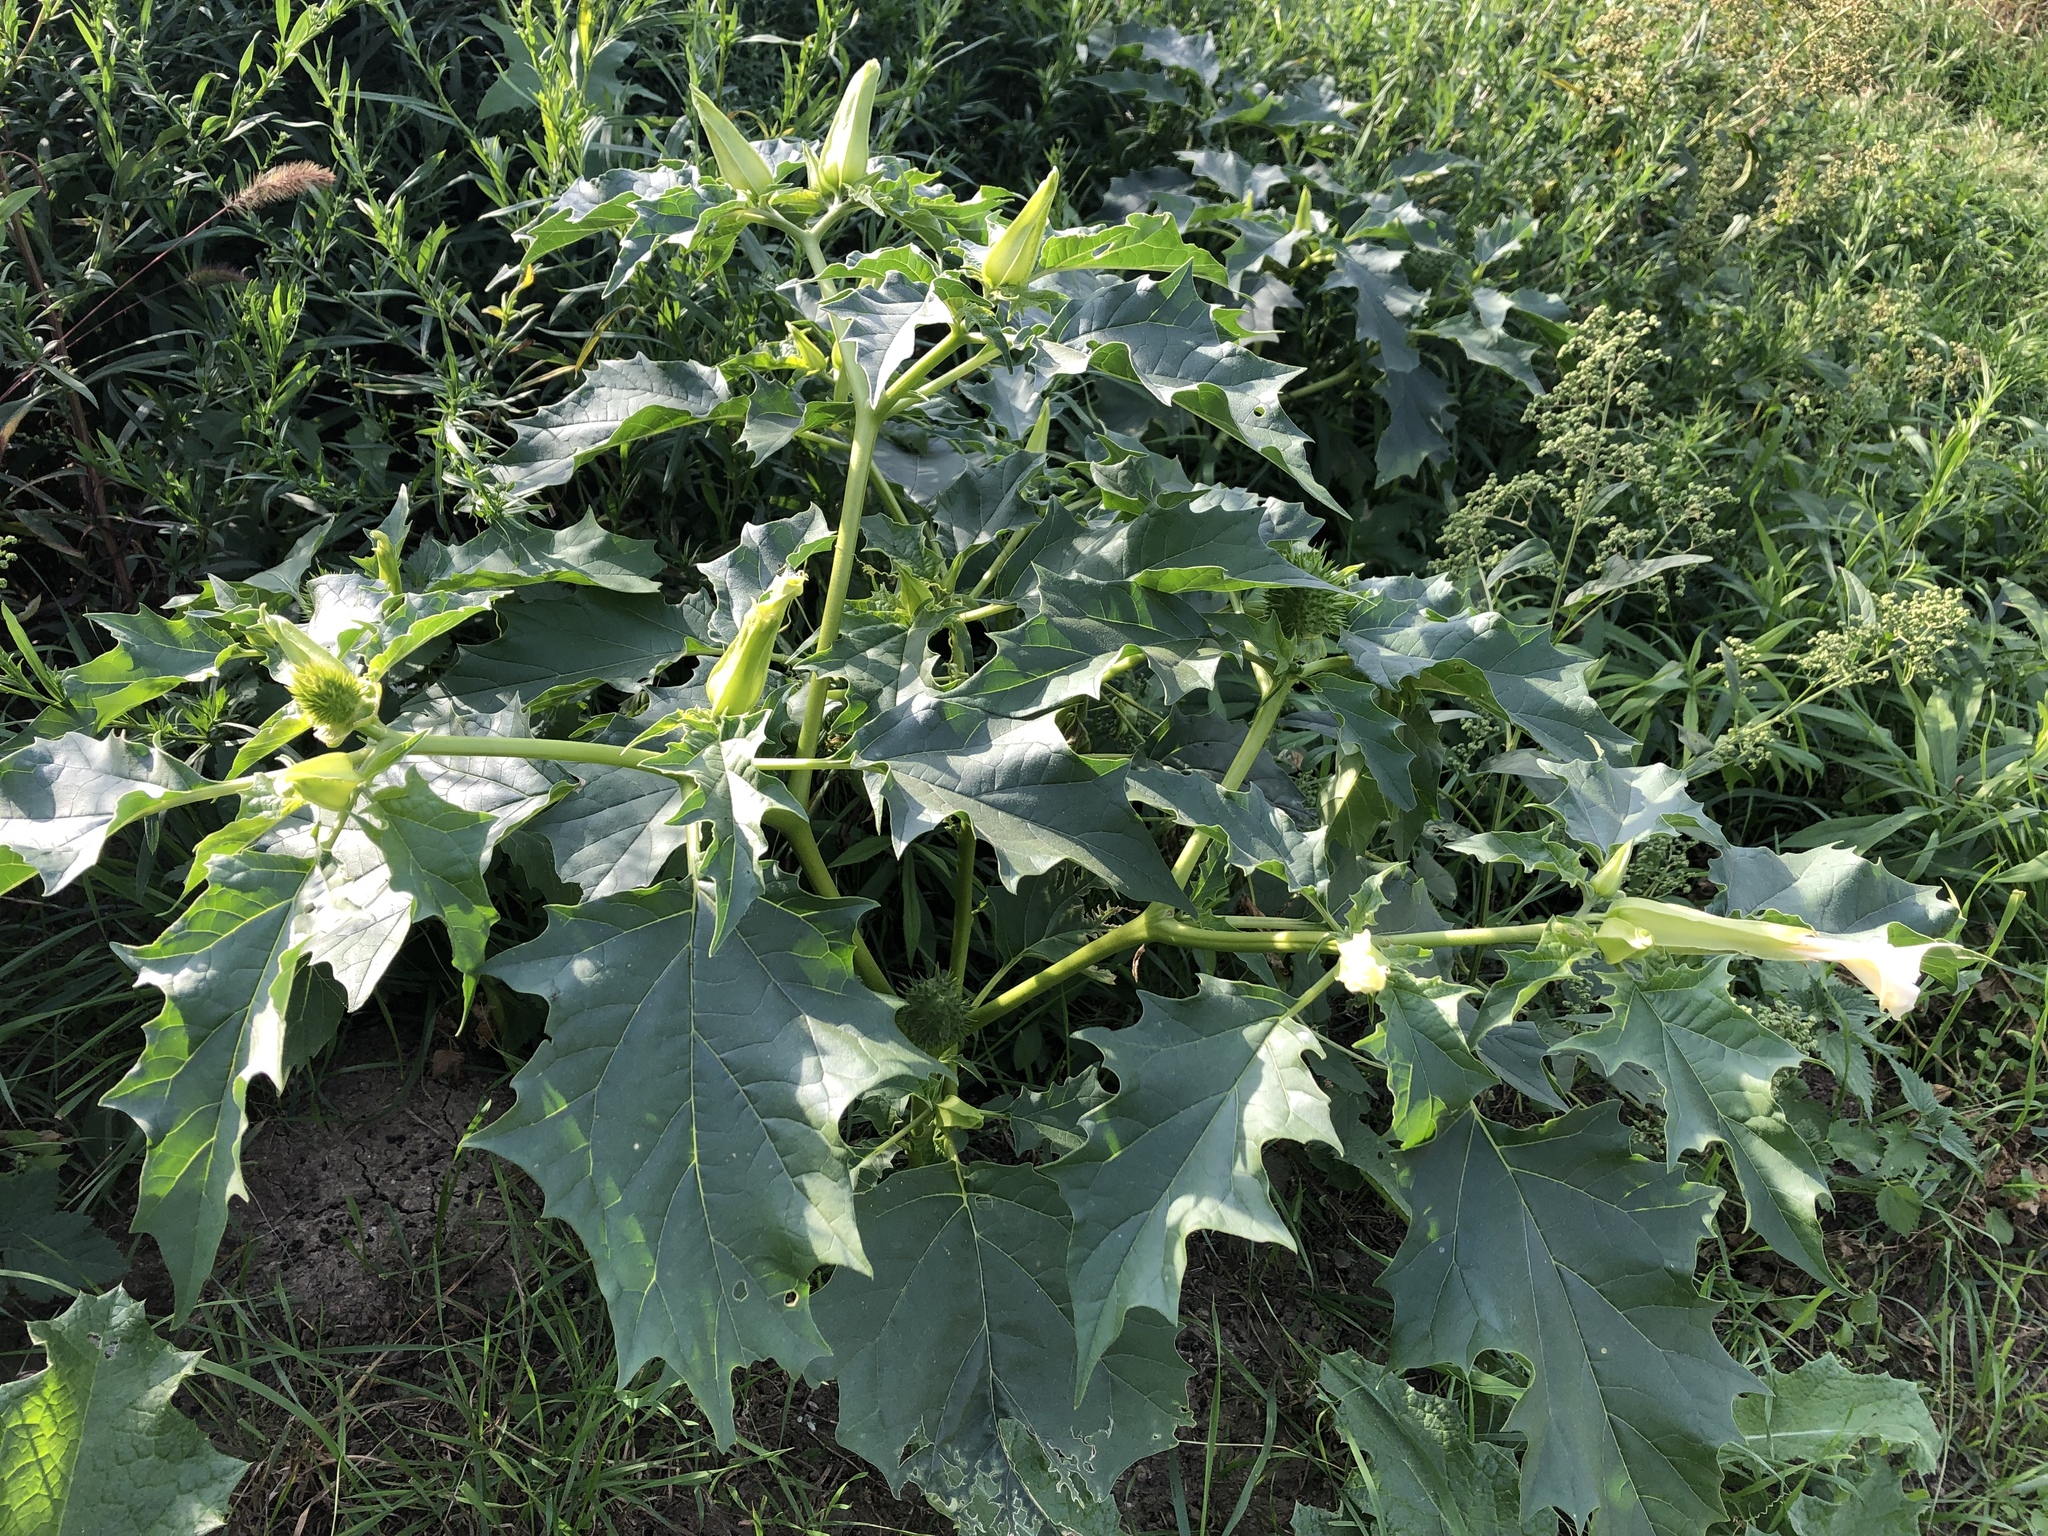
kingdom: Plantae
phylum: Tracheophyta
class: Magnoliopsida
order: Solanales
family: Solanaceae
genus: Datura
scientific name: Datura stramonium
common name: Thorn-apple
